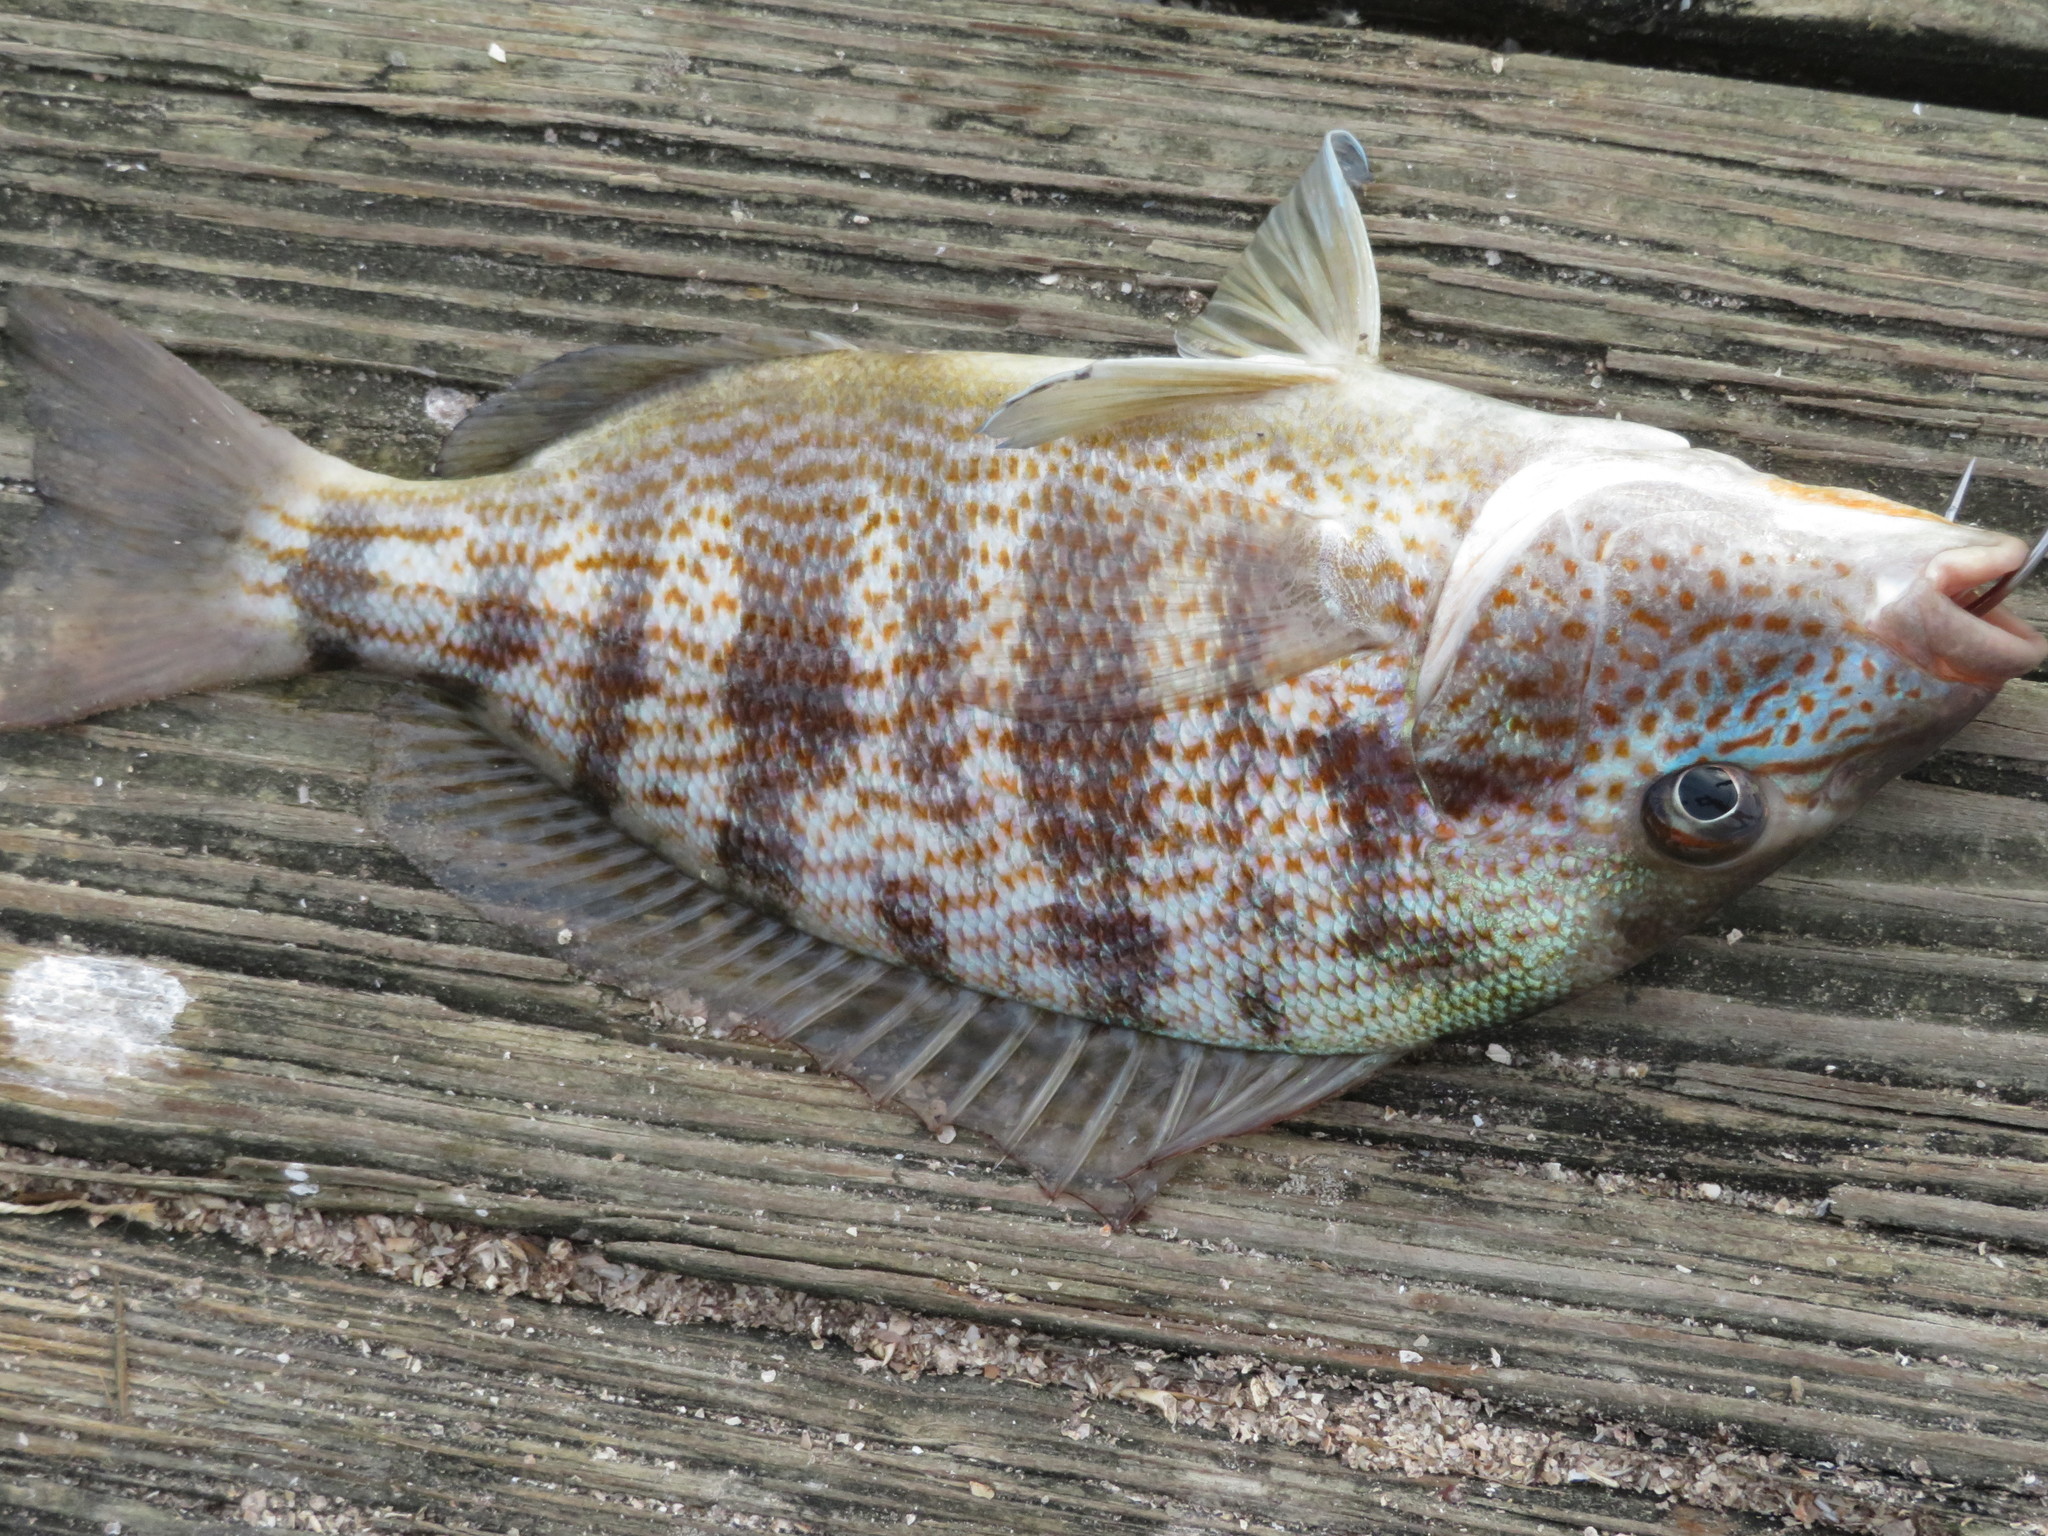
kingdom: Animalia
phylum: Chordata
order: Perciformes
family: Haemulidae
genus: Orthopristis
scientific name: Orthopristis chrysoptera
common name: Pigfish
